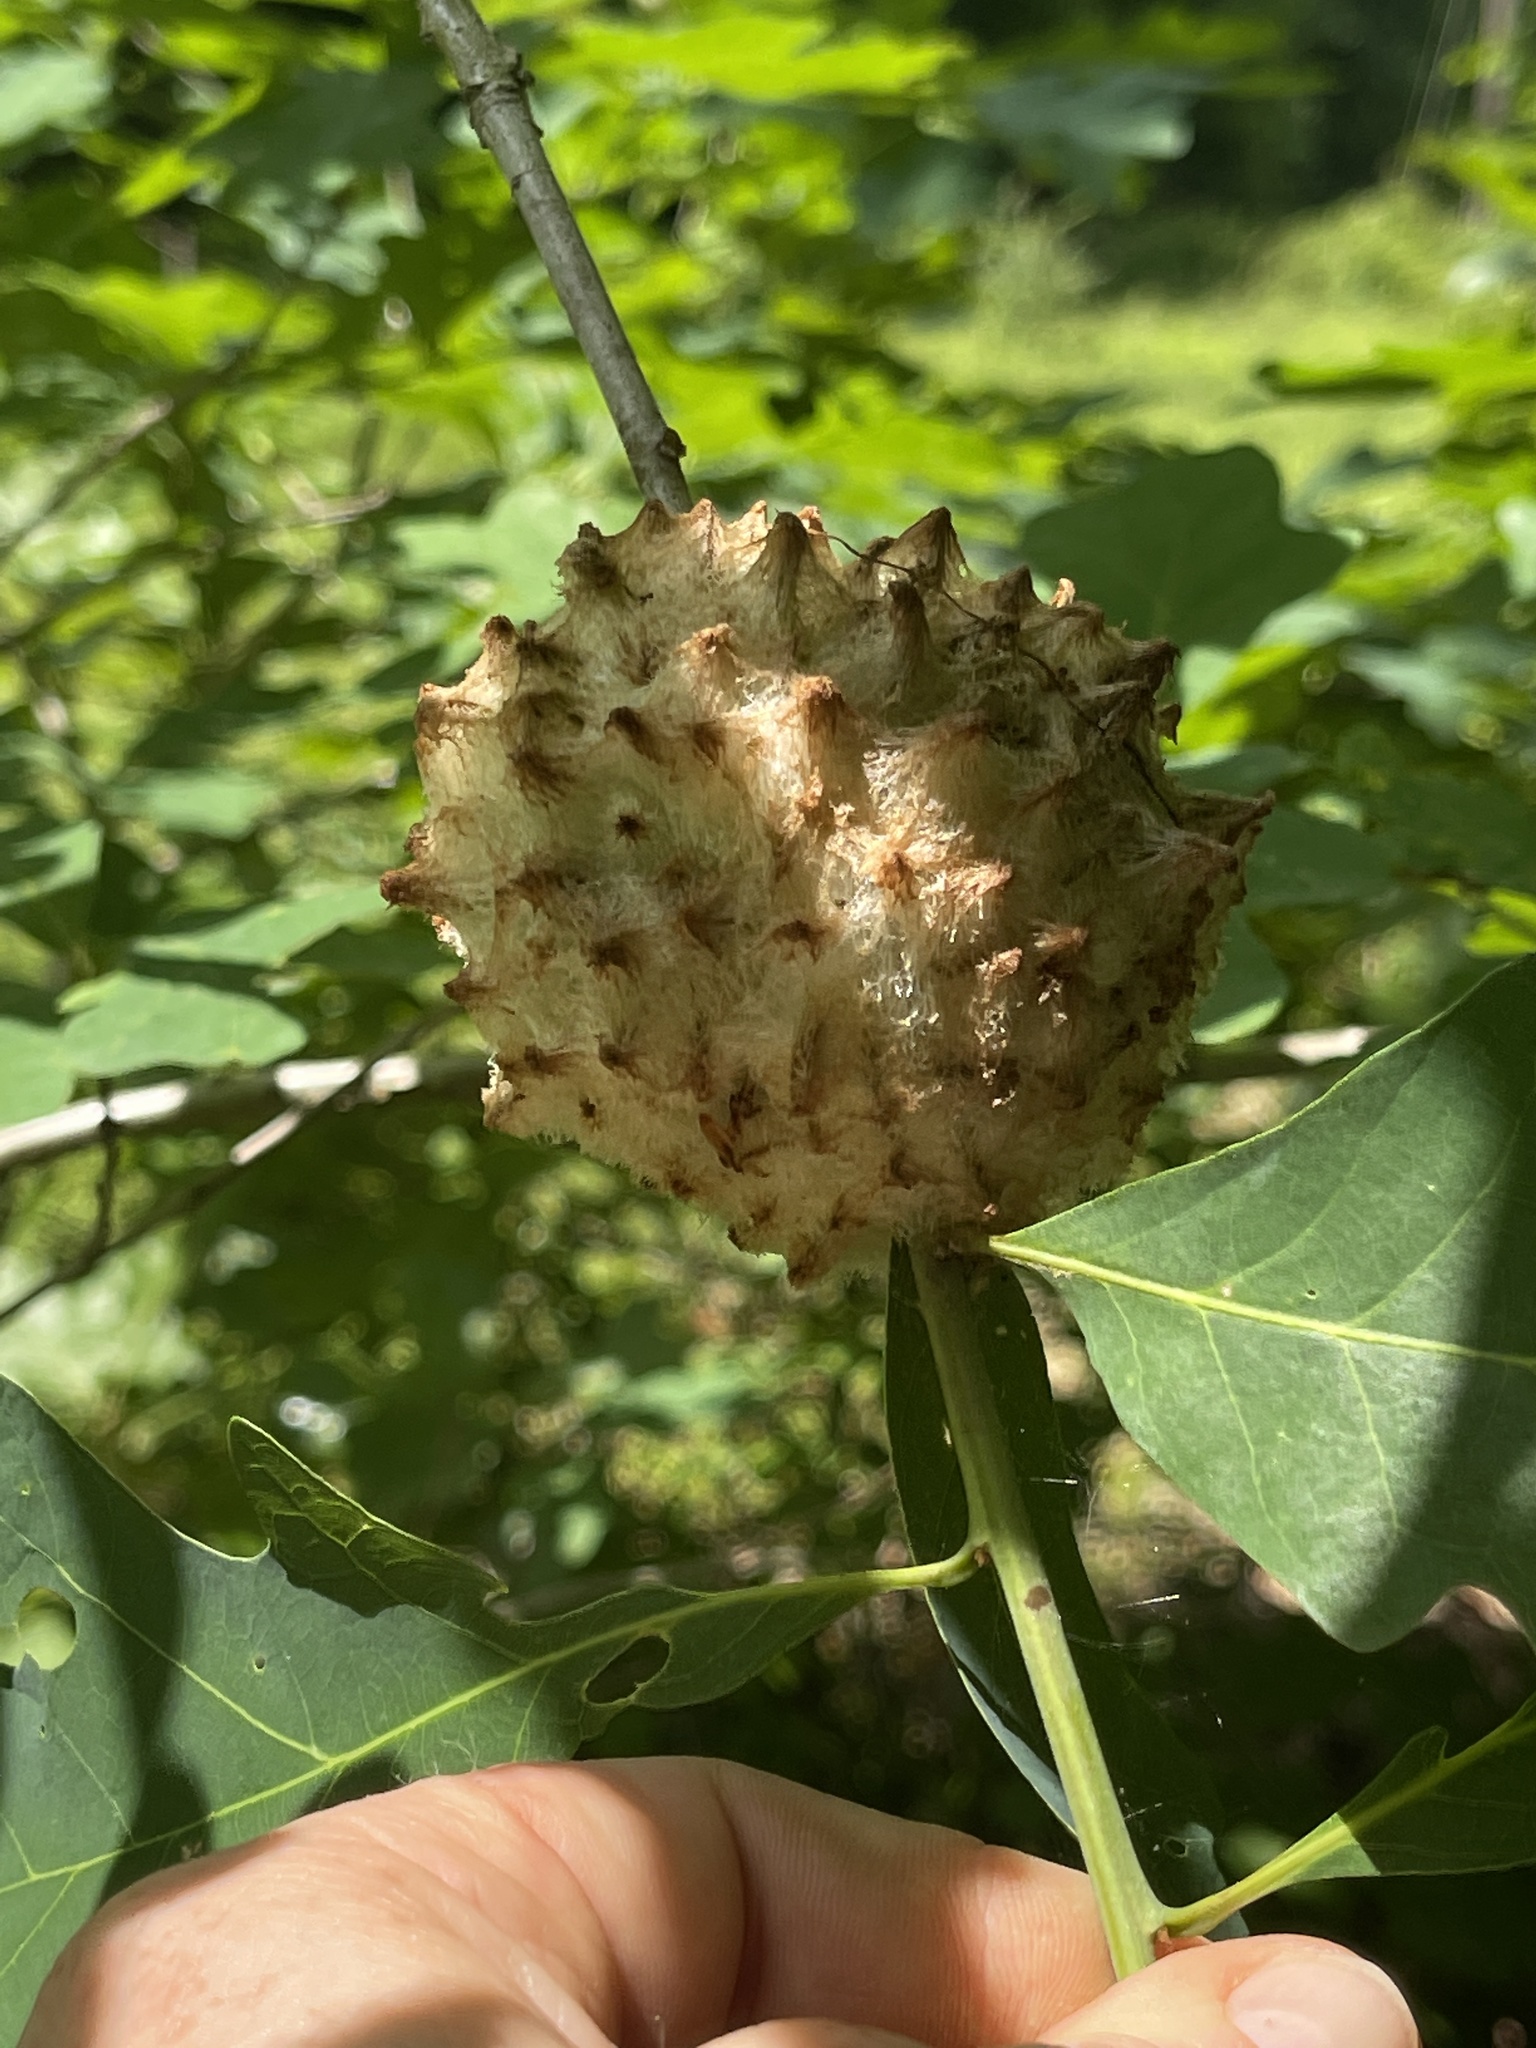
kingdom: Animalia
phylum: Arthropoda
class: Insecta
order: Hymenoptera
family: Cynipidae
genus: Callirhytis
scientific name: Callirhytis
